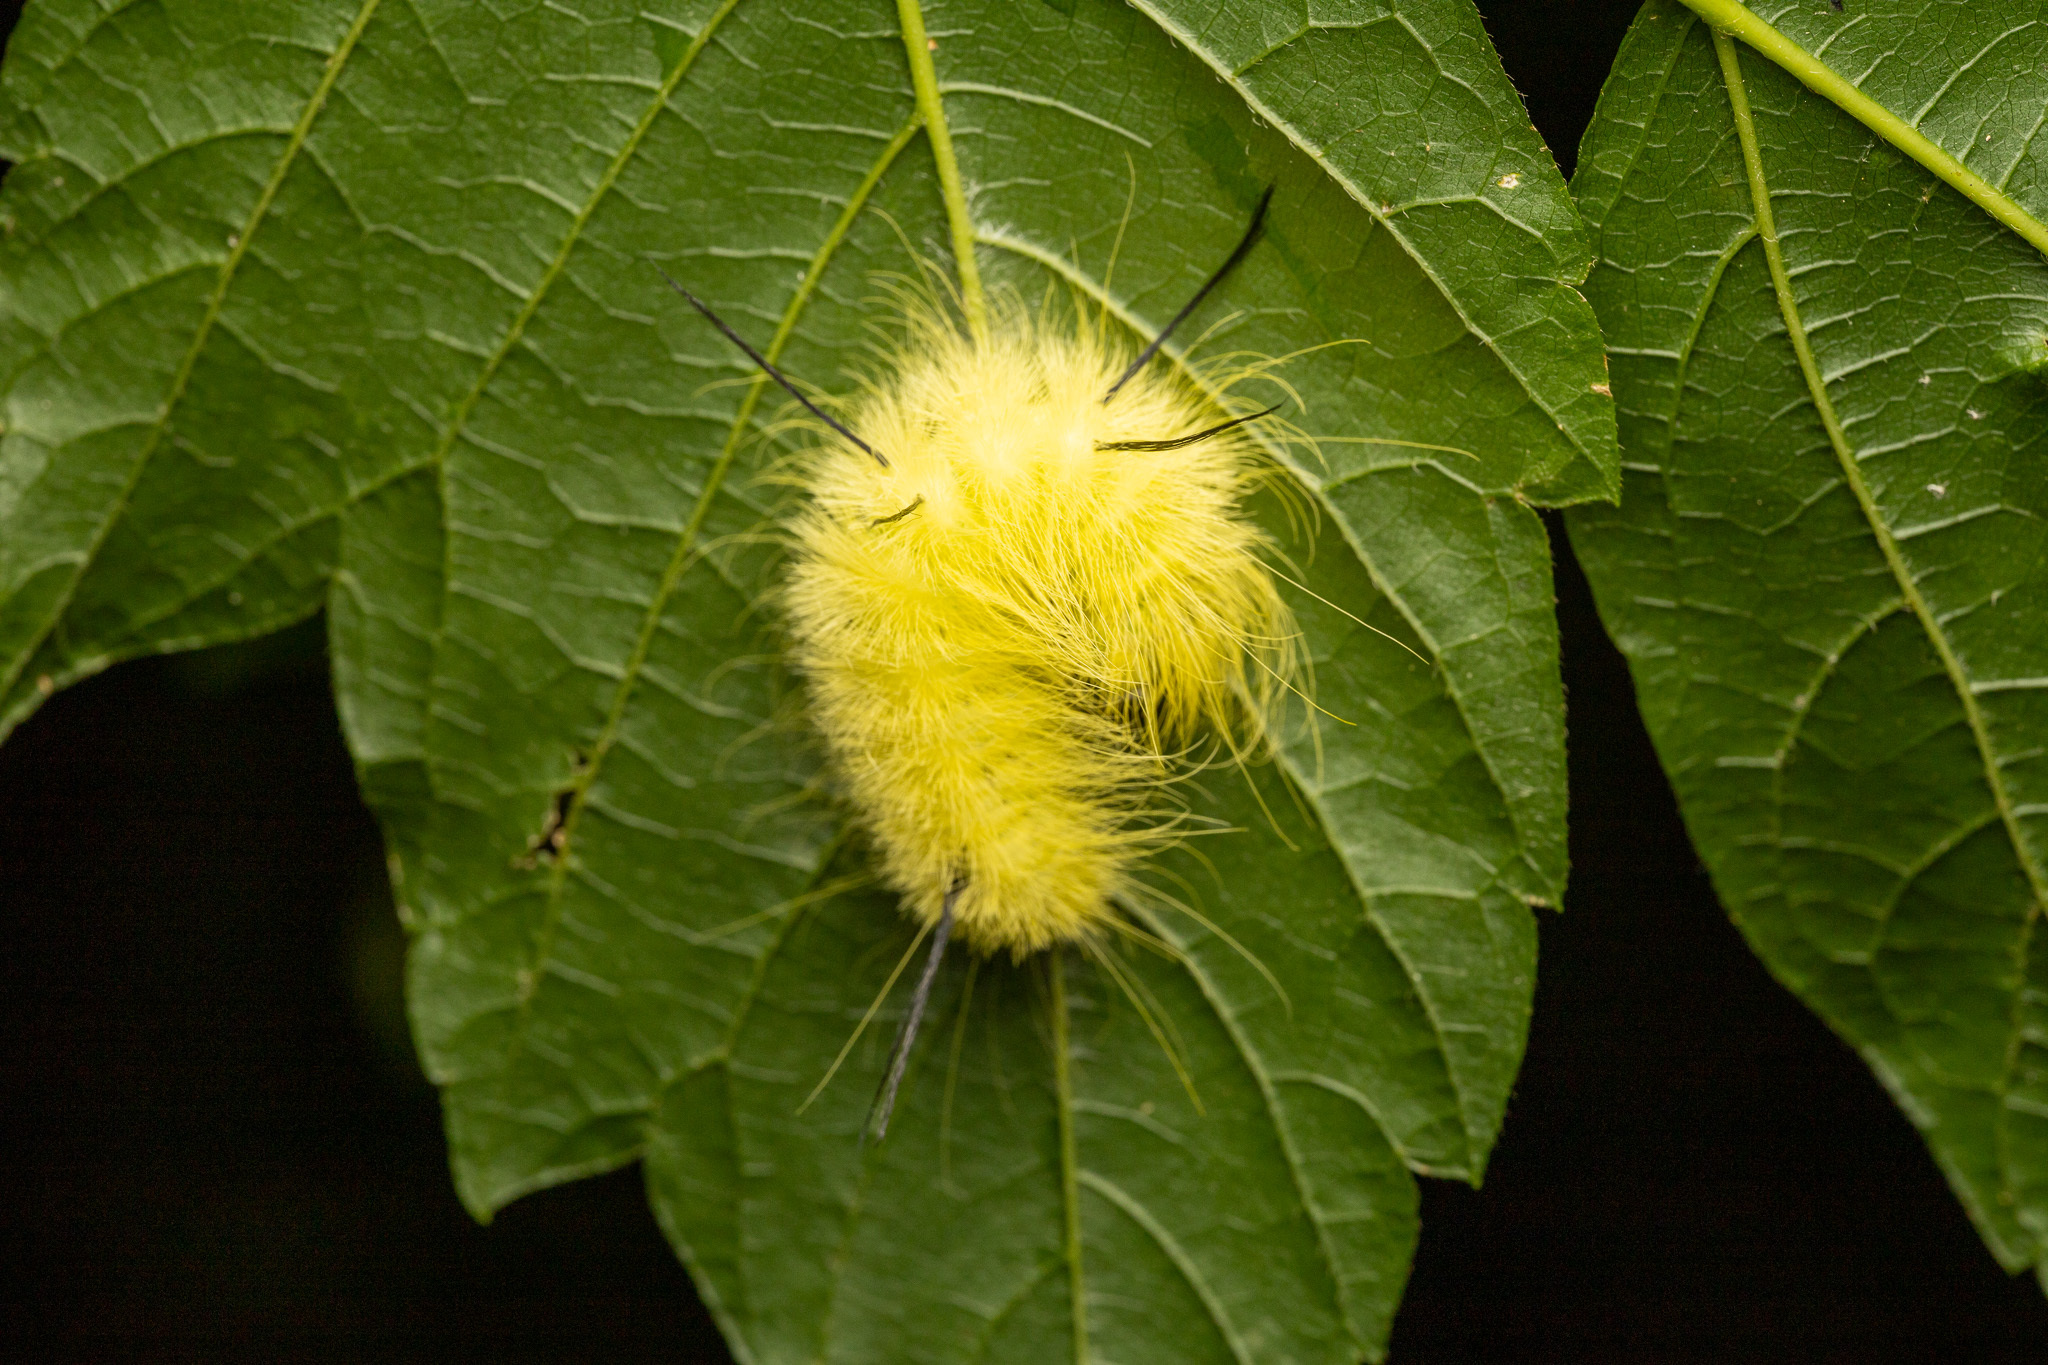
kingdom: Animalia
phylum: Arthropoda
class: Insecta
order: Lepidoptera
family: Noctuidae
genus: Acronicta
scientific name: Acronicta americana
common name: American dagger
